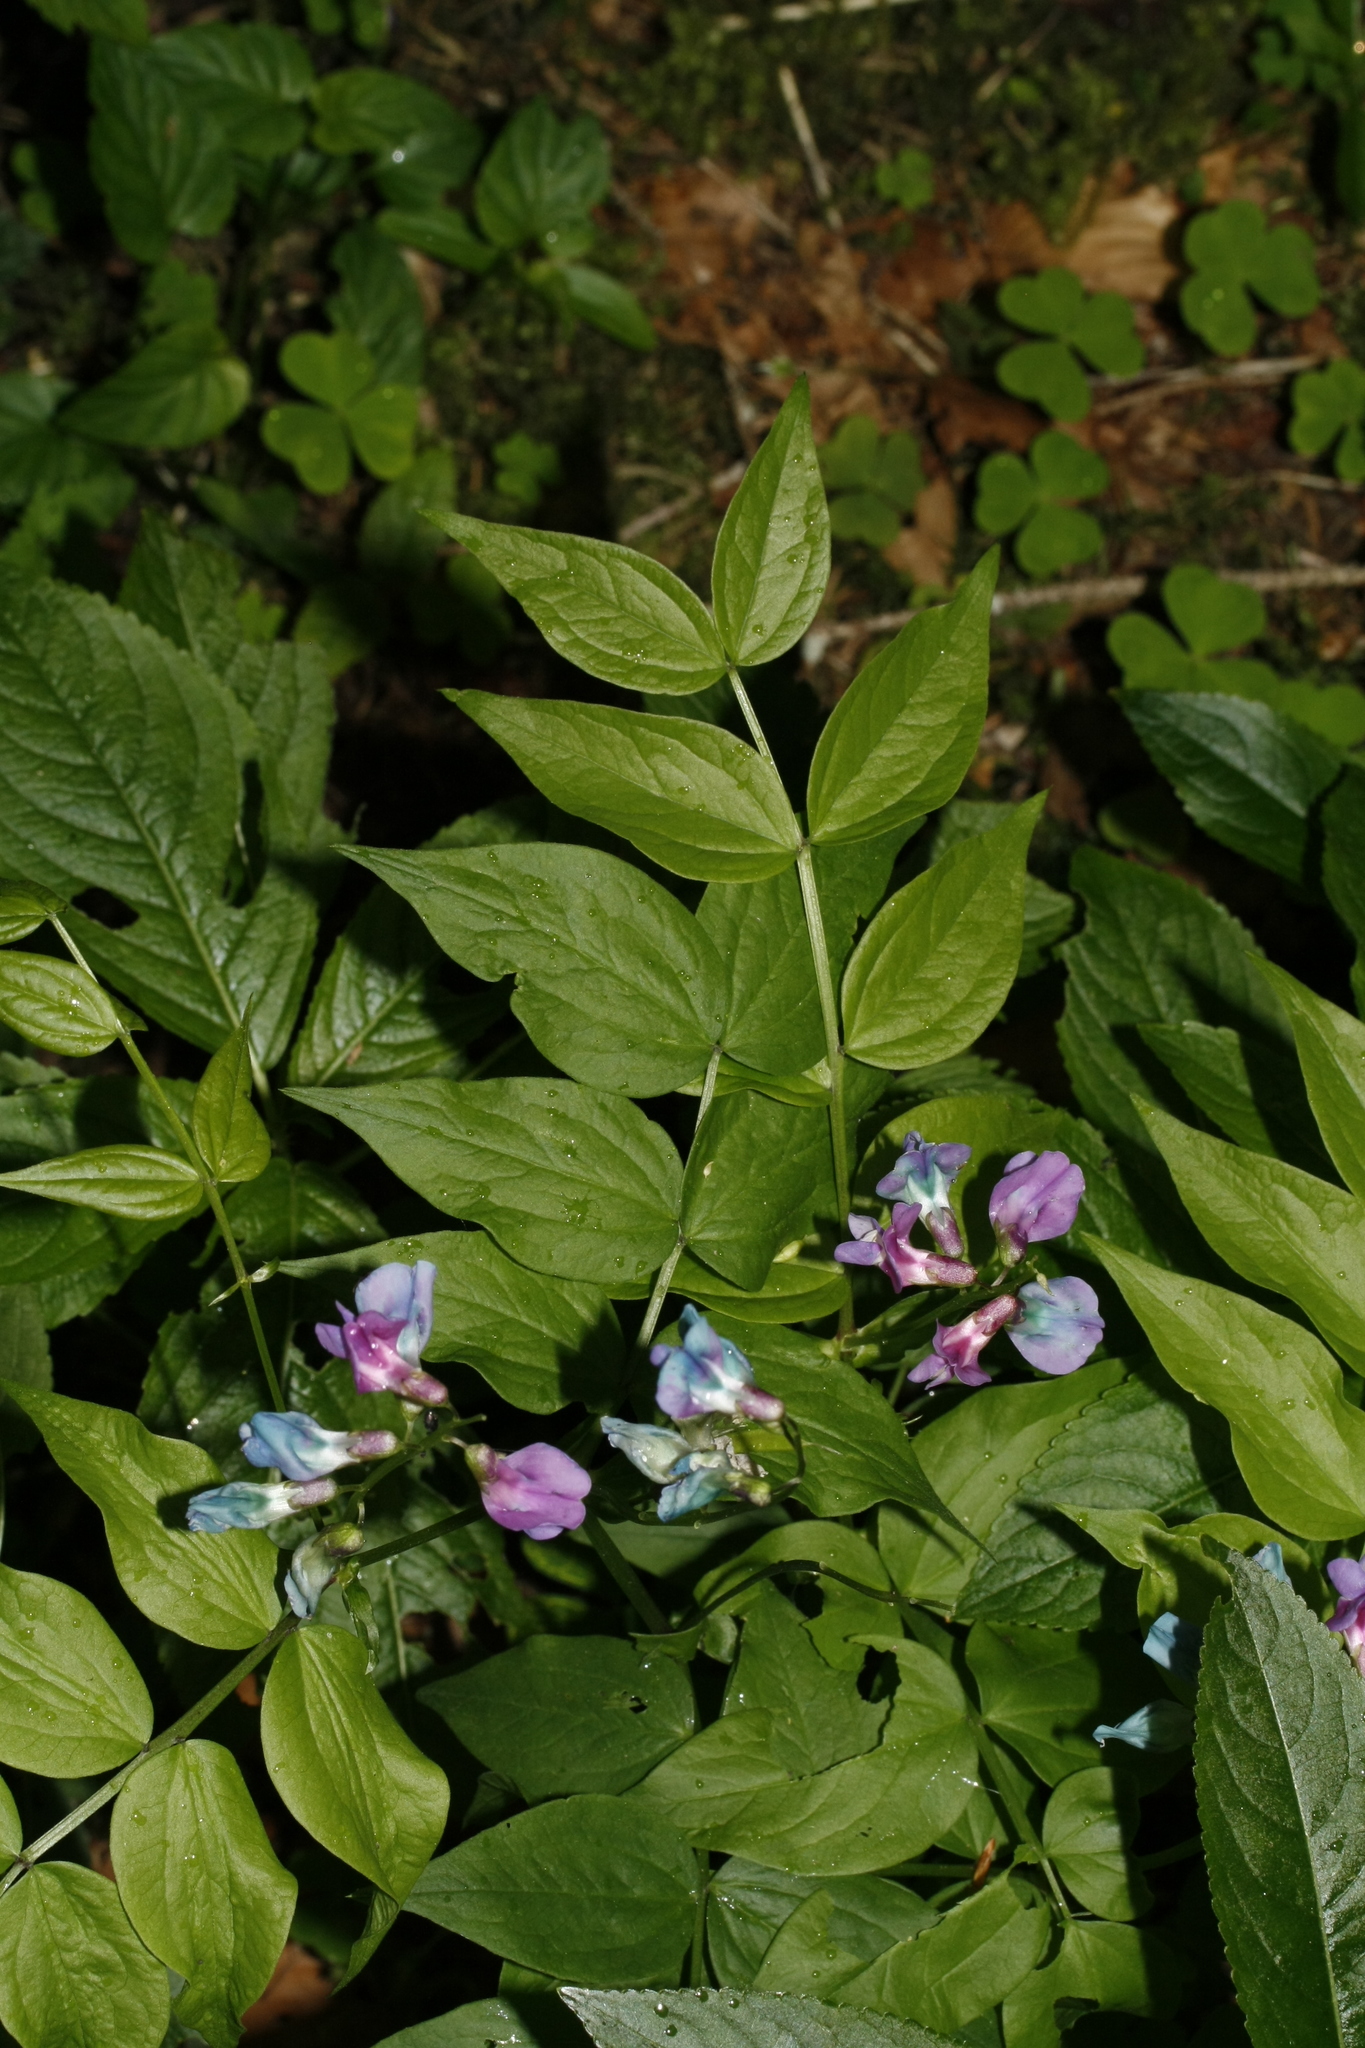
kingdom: Plantae
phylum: Tracheophyta
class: Magnoliopsida
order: Fabales
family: Fabaceae
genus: Lathyrus
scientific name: Lathyrus vernus
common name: Spring pea
